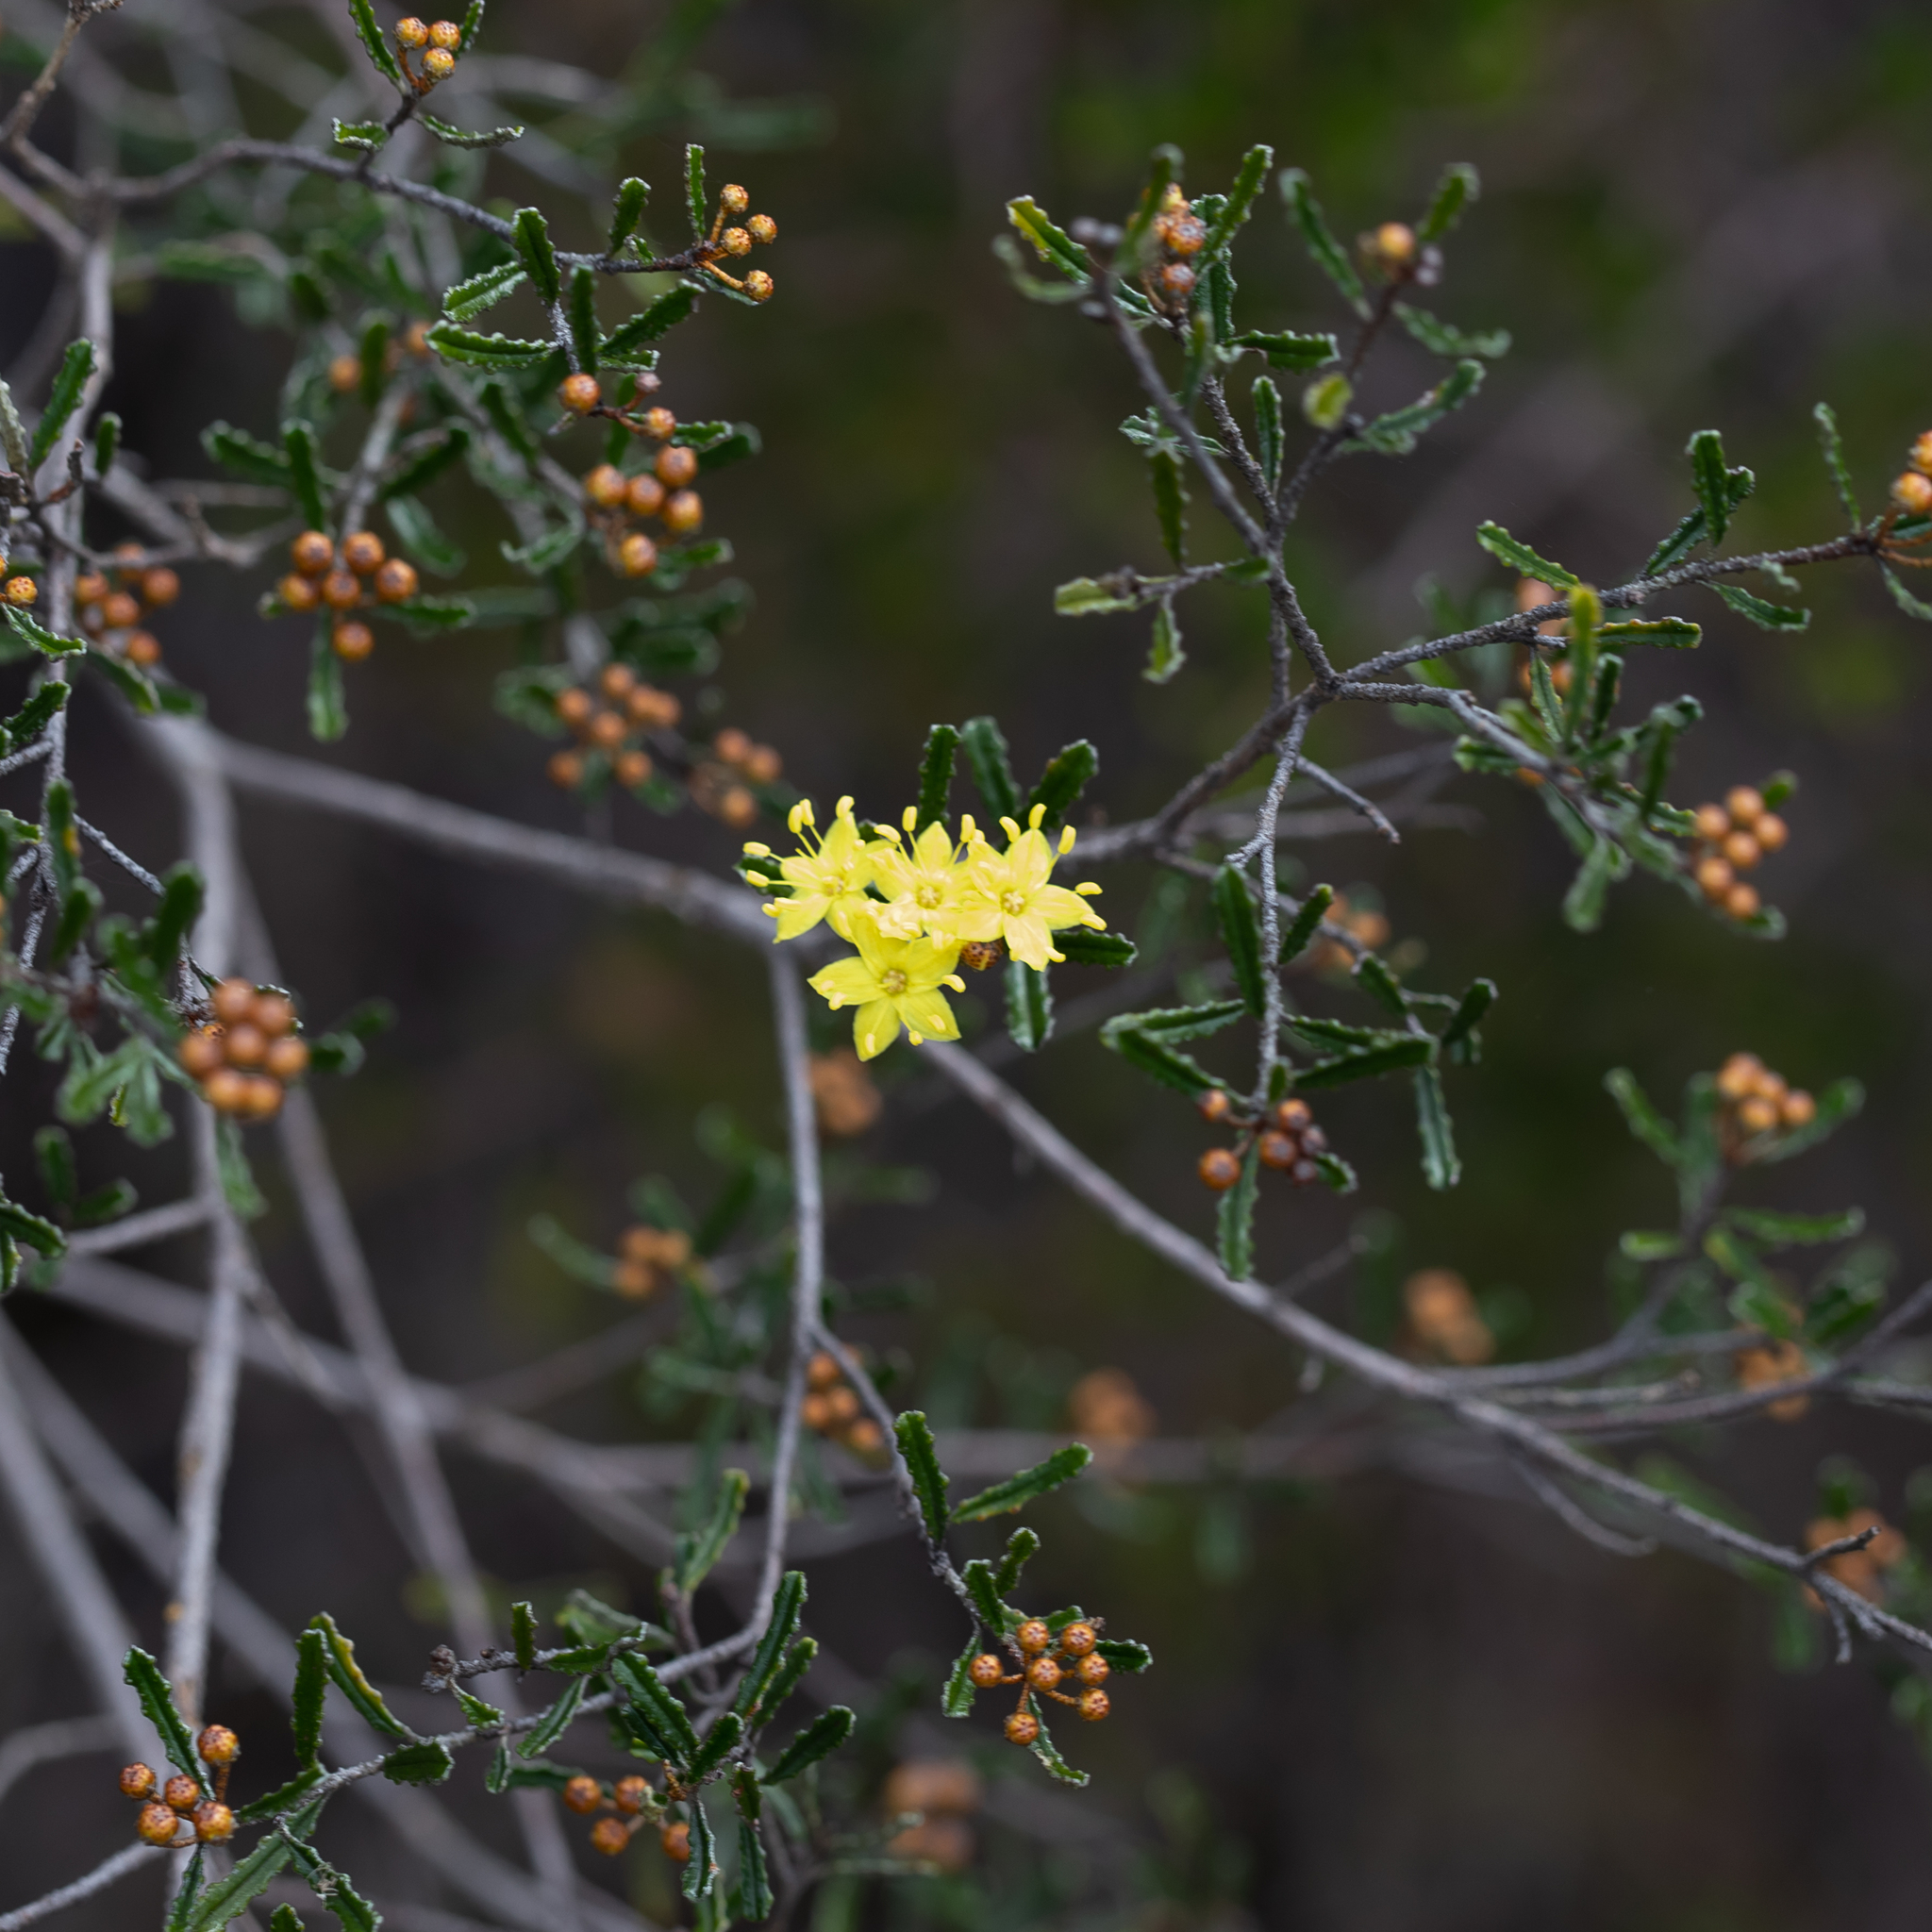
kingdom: Plantae
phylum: Tracheophyta
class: Magnoliopsida
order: Sapindales
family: Rutaceae
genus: Phebalium
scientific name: Phebalium bullatum
